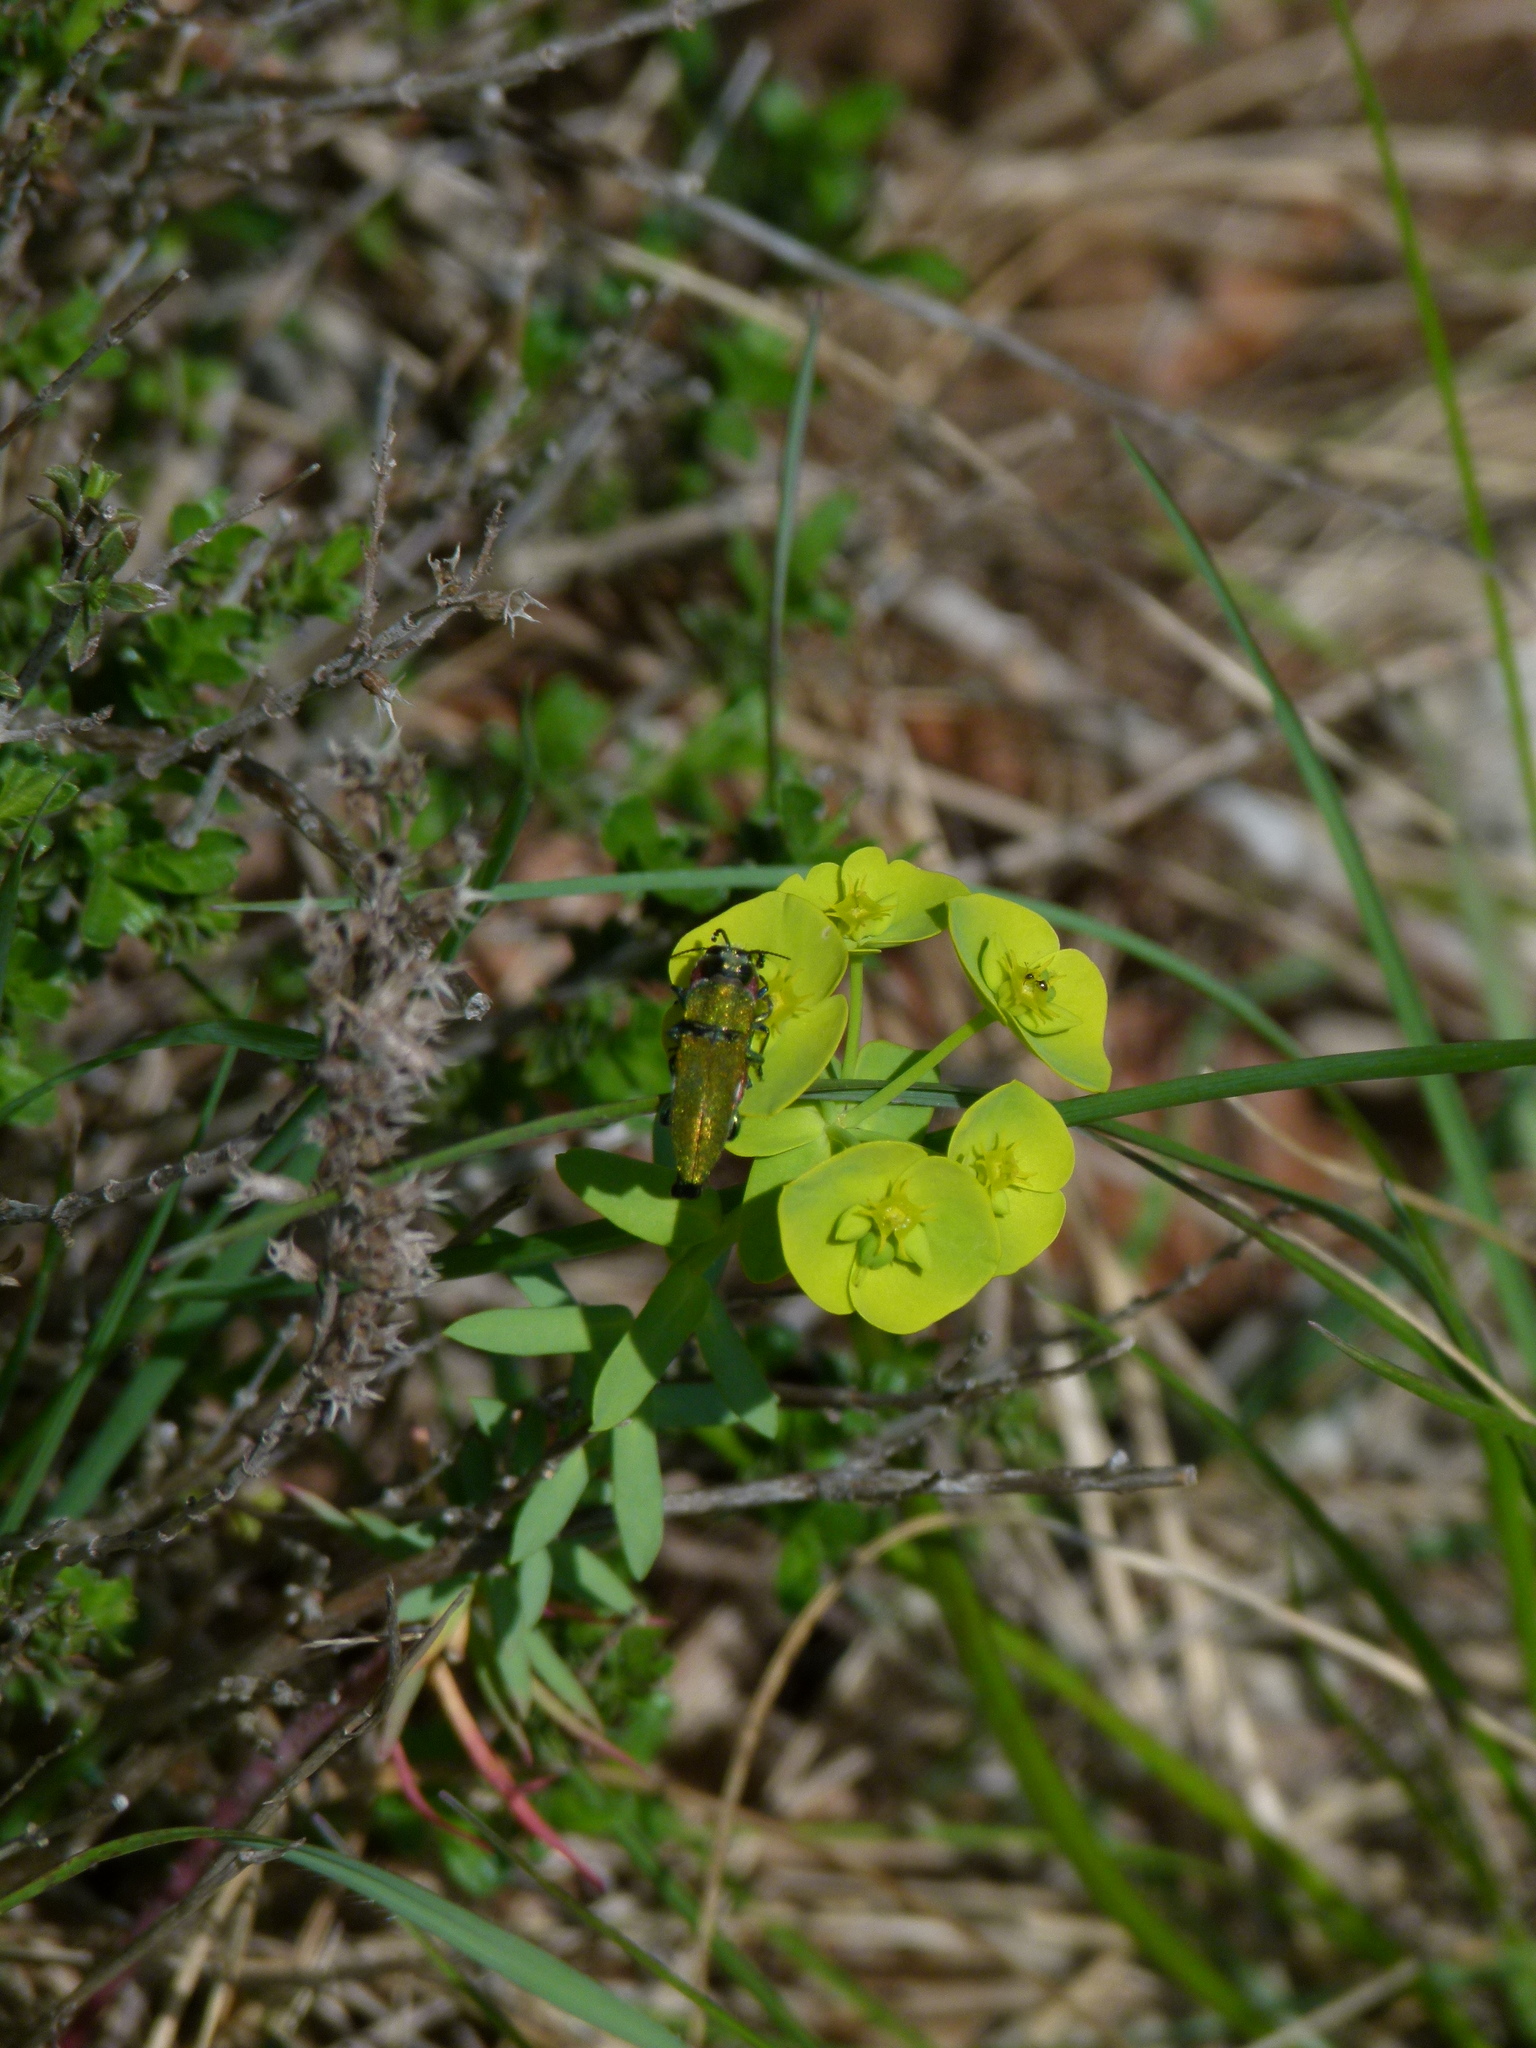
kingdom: Animalia
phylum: Arthropoda
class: Insecta
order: Coleoptera
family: Buprestidae
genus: Anthaxia
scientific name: Anthaxia hungarica
